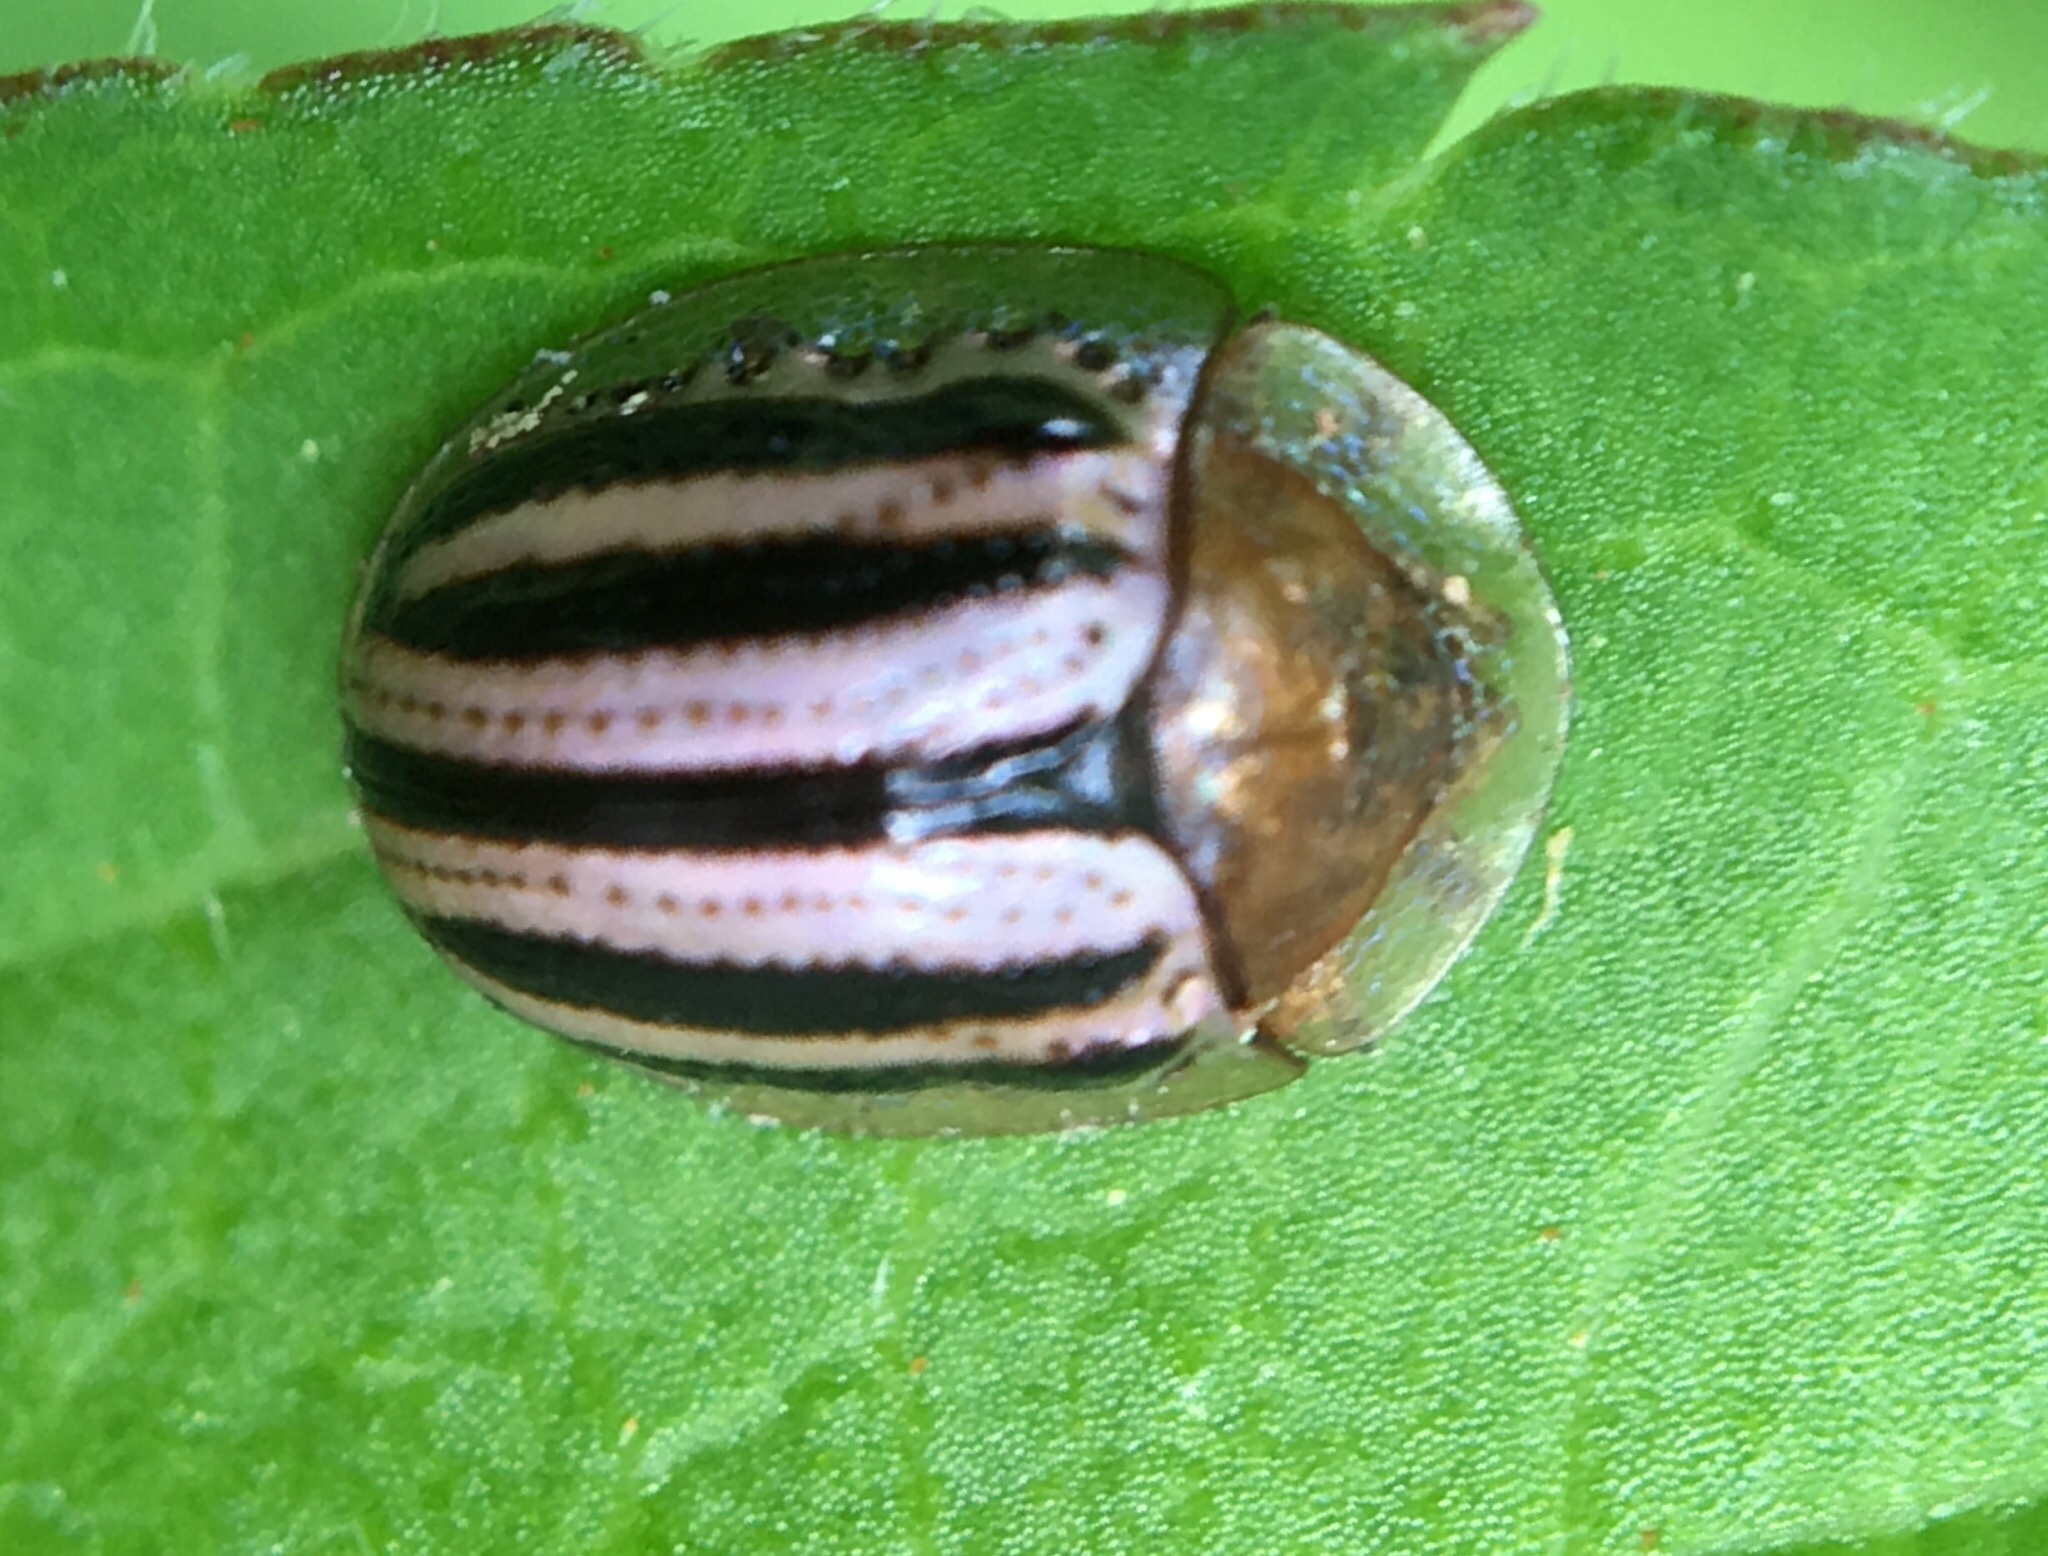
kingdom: Animalia
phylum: Arthropoda
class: Insecta
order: Coleoptera
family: Chrysomelidae
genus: Agroiconota
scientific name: Agroiconota bivittata
